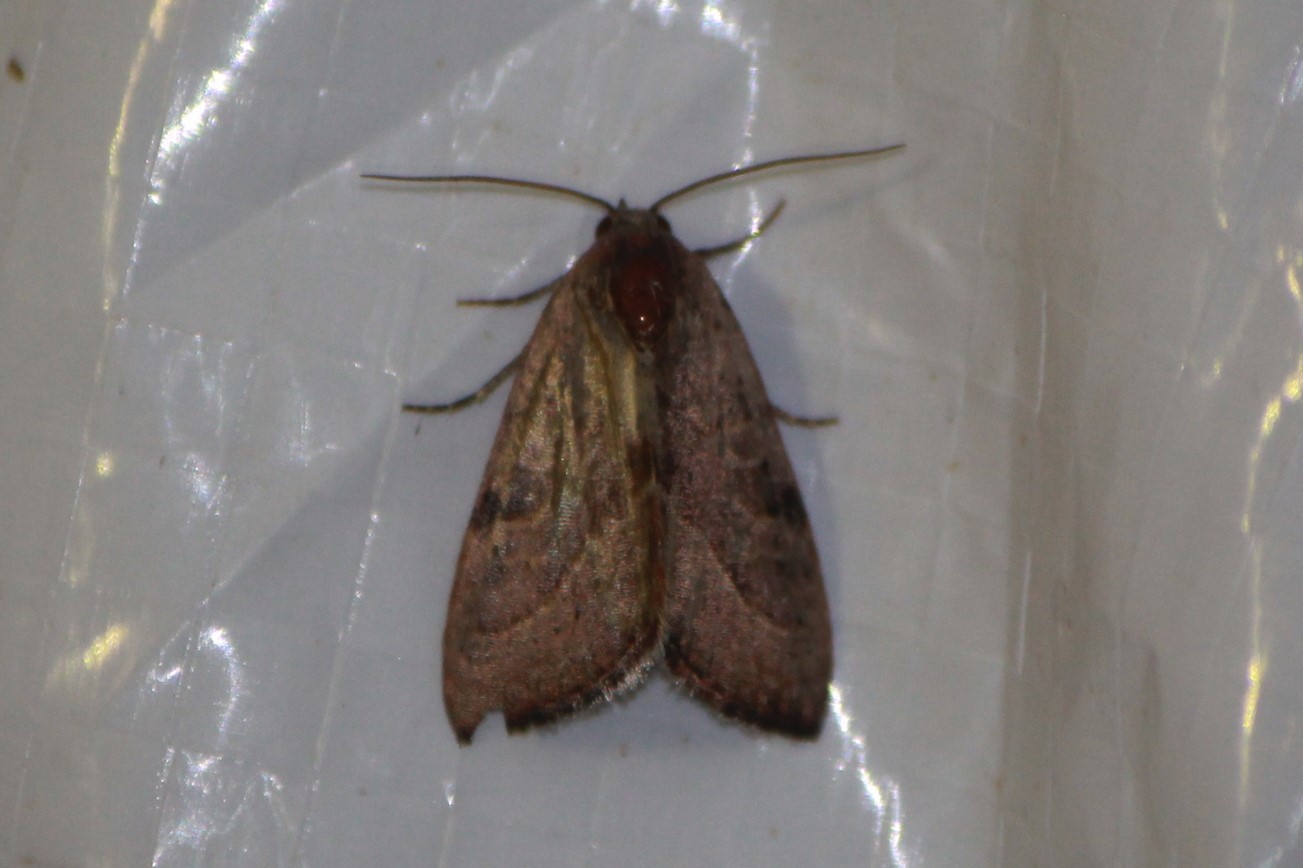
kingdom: Animalia
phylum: Arthropoda
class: Insecta
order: Lepidoptera
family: Noctuidae
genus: Galgula
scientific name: Galgula partita
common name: Wedgeling
